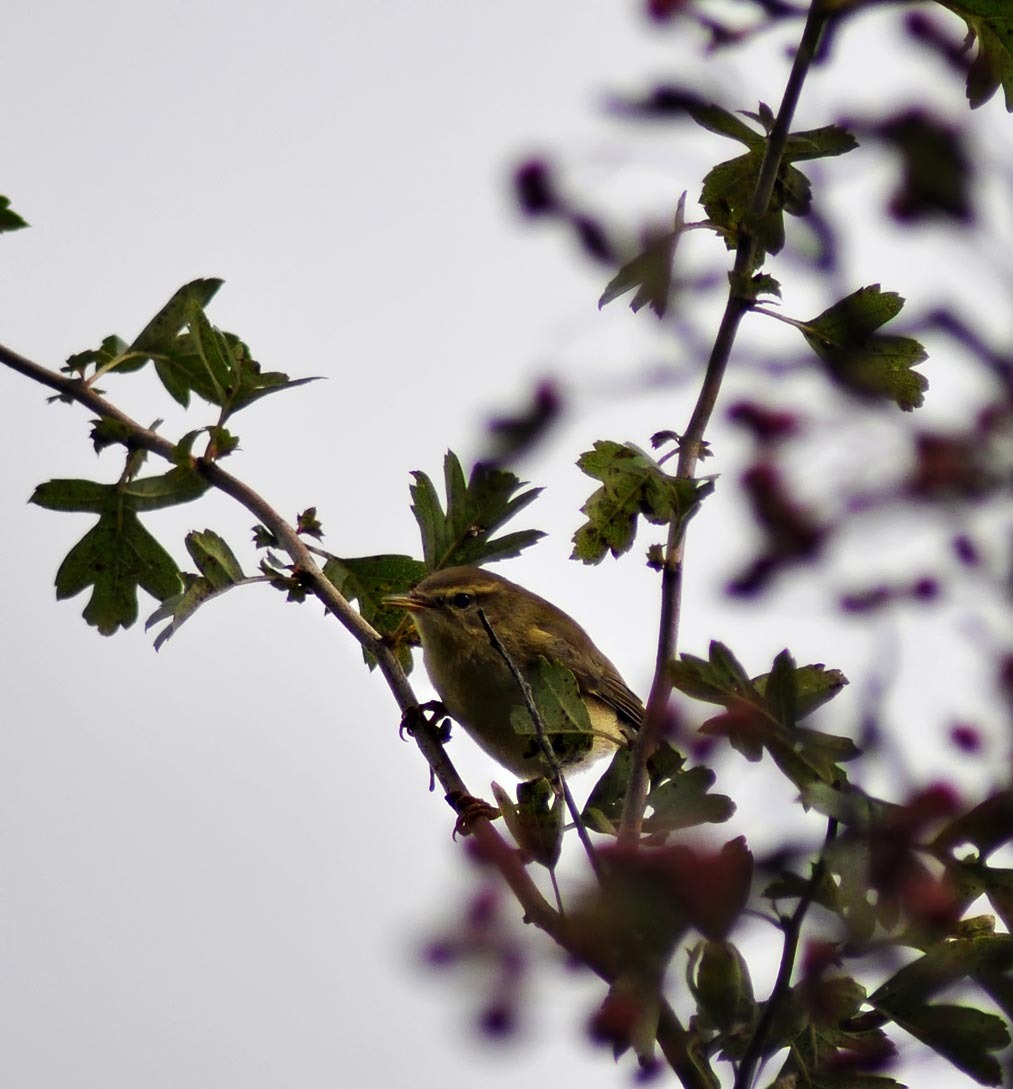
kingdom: Animalia
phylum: Chordata
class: Aves
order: Passeriformes
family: Phylloscopidae
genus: Phylloscopus
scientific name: Phylloscopus trochilus
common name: Willow warbler
